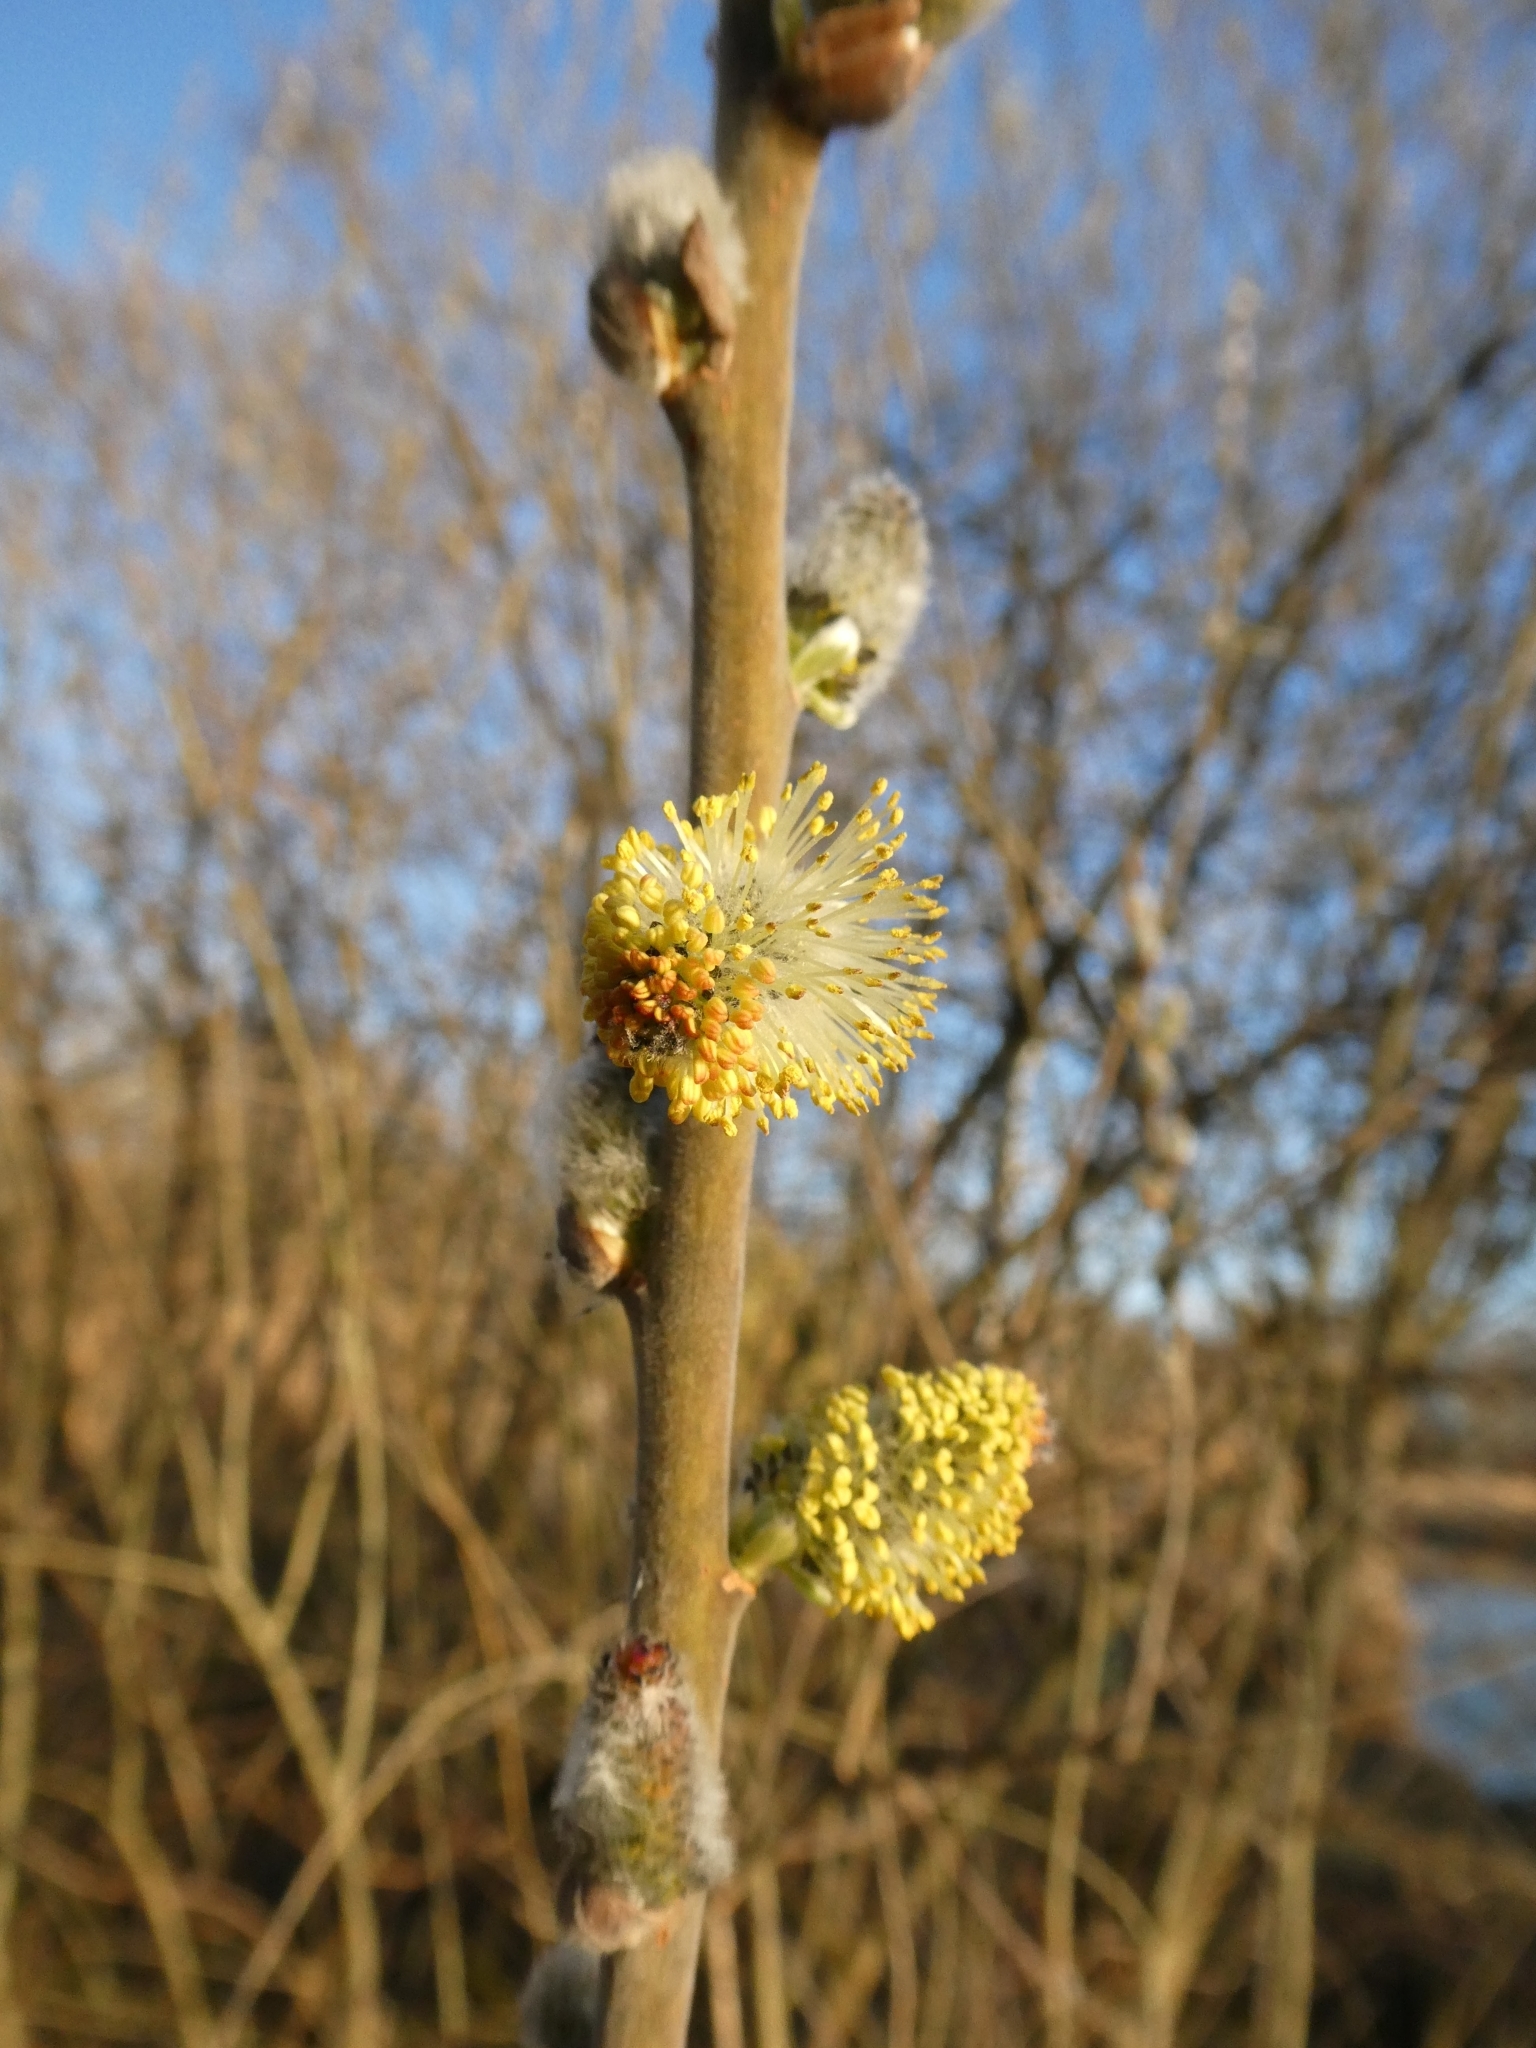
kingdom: Plantae
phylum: Tracheophyta
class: Magnoliopsida
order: Malpighiales
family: Salicaceae
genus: Salix
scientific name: Salix caprea
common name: Goat willow
